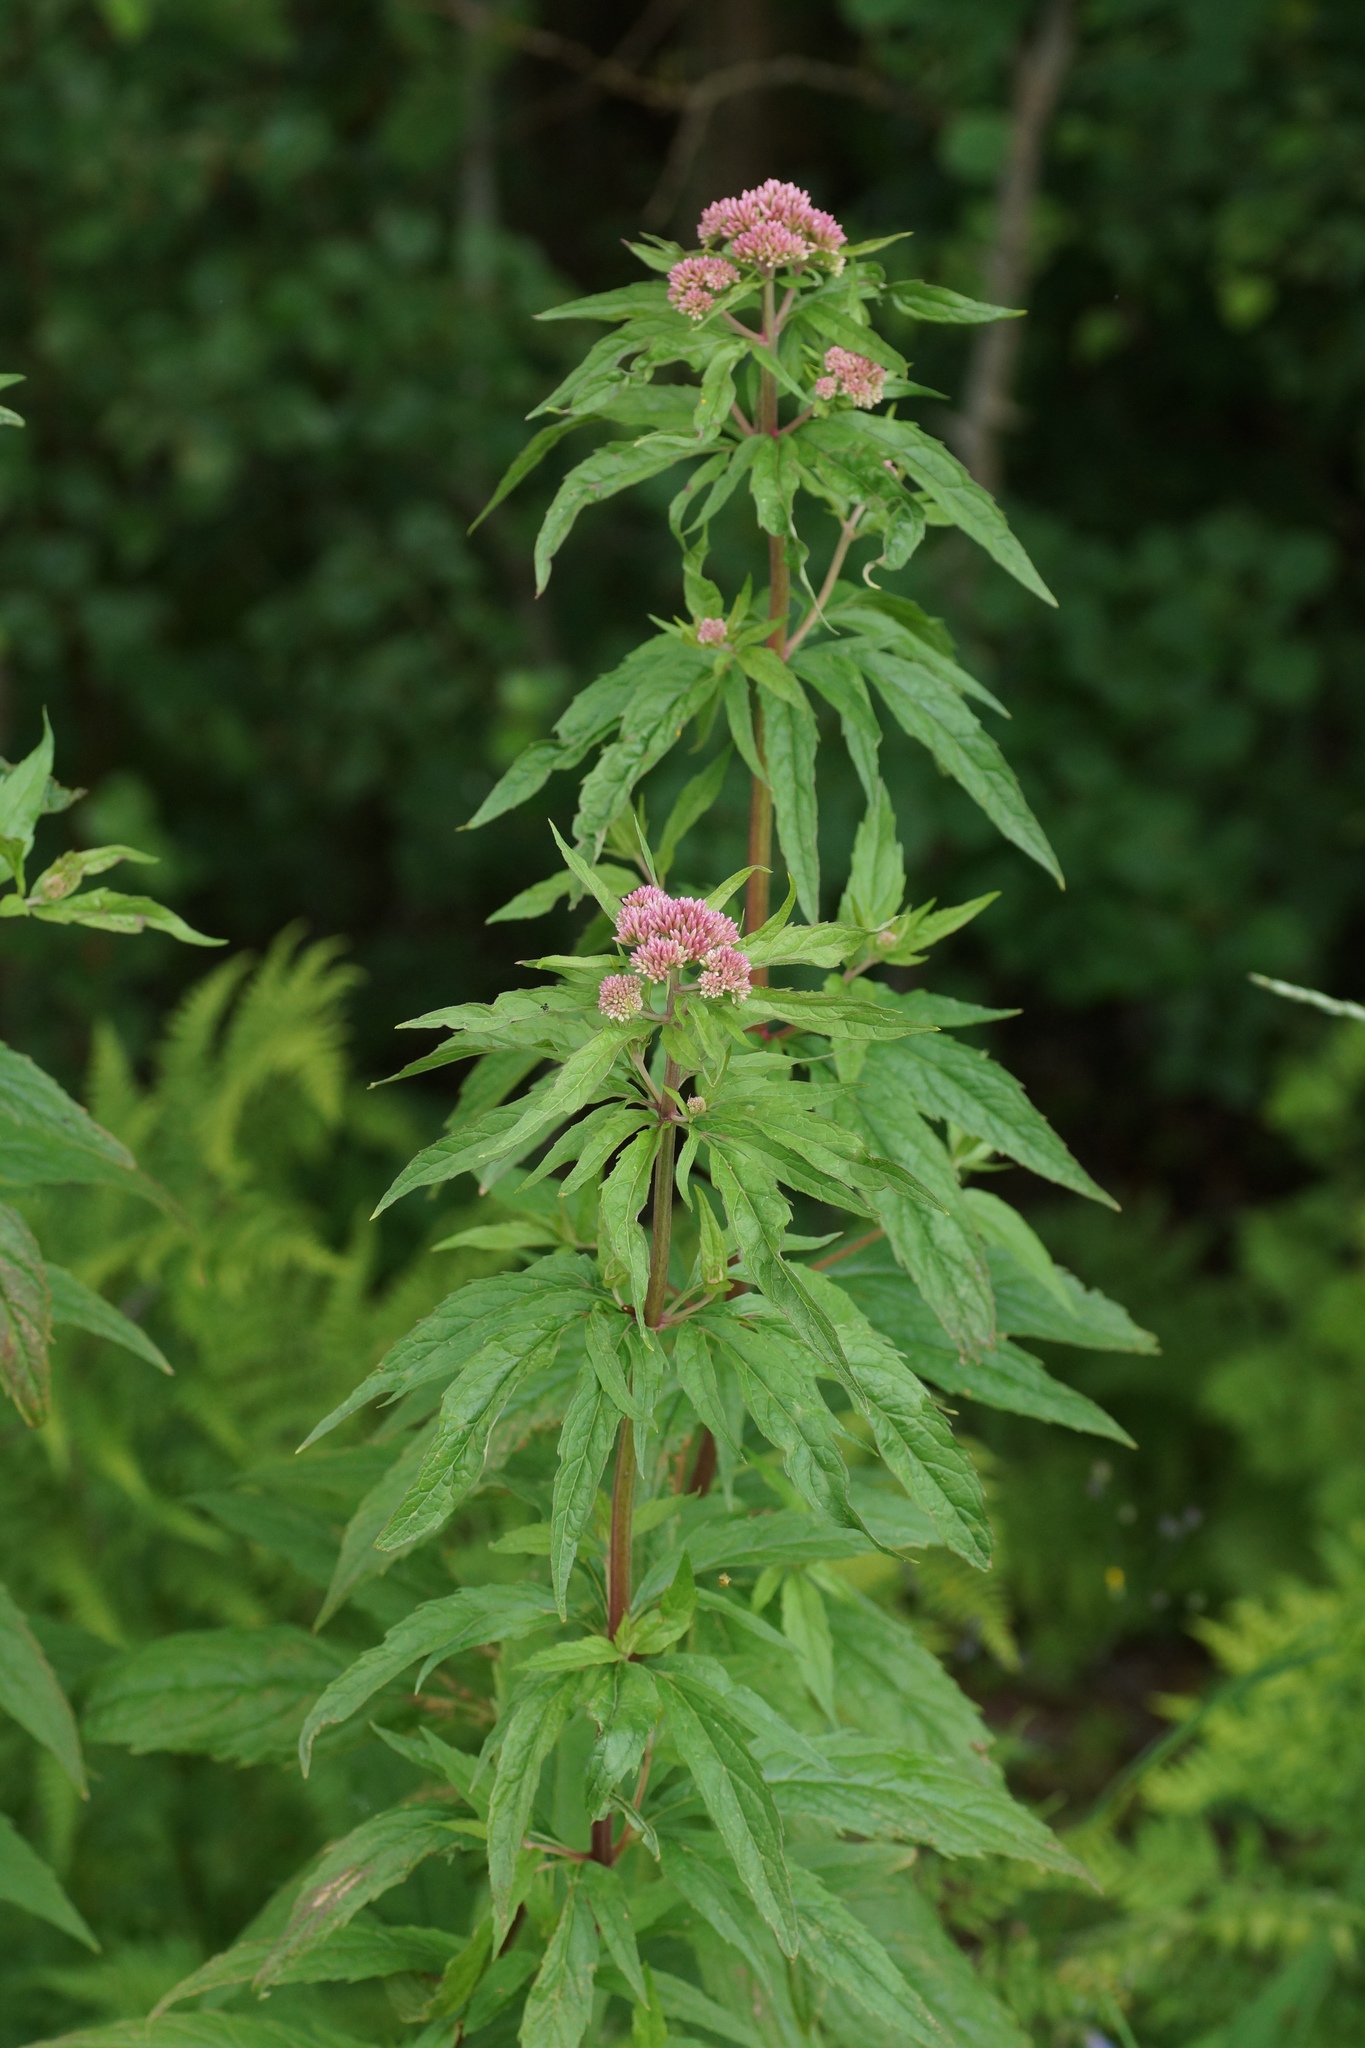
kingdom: Plantae
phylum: Tracheophyta
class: Magnoliopsida
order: Asterales
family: Asteraceae
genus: Eupatorium
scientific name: Eupatorium cannabinum
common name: Hemp-agrimony
